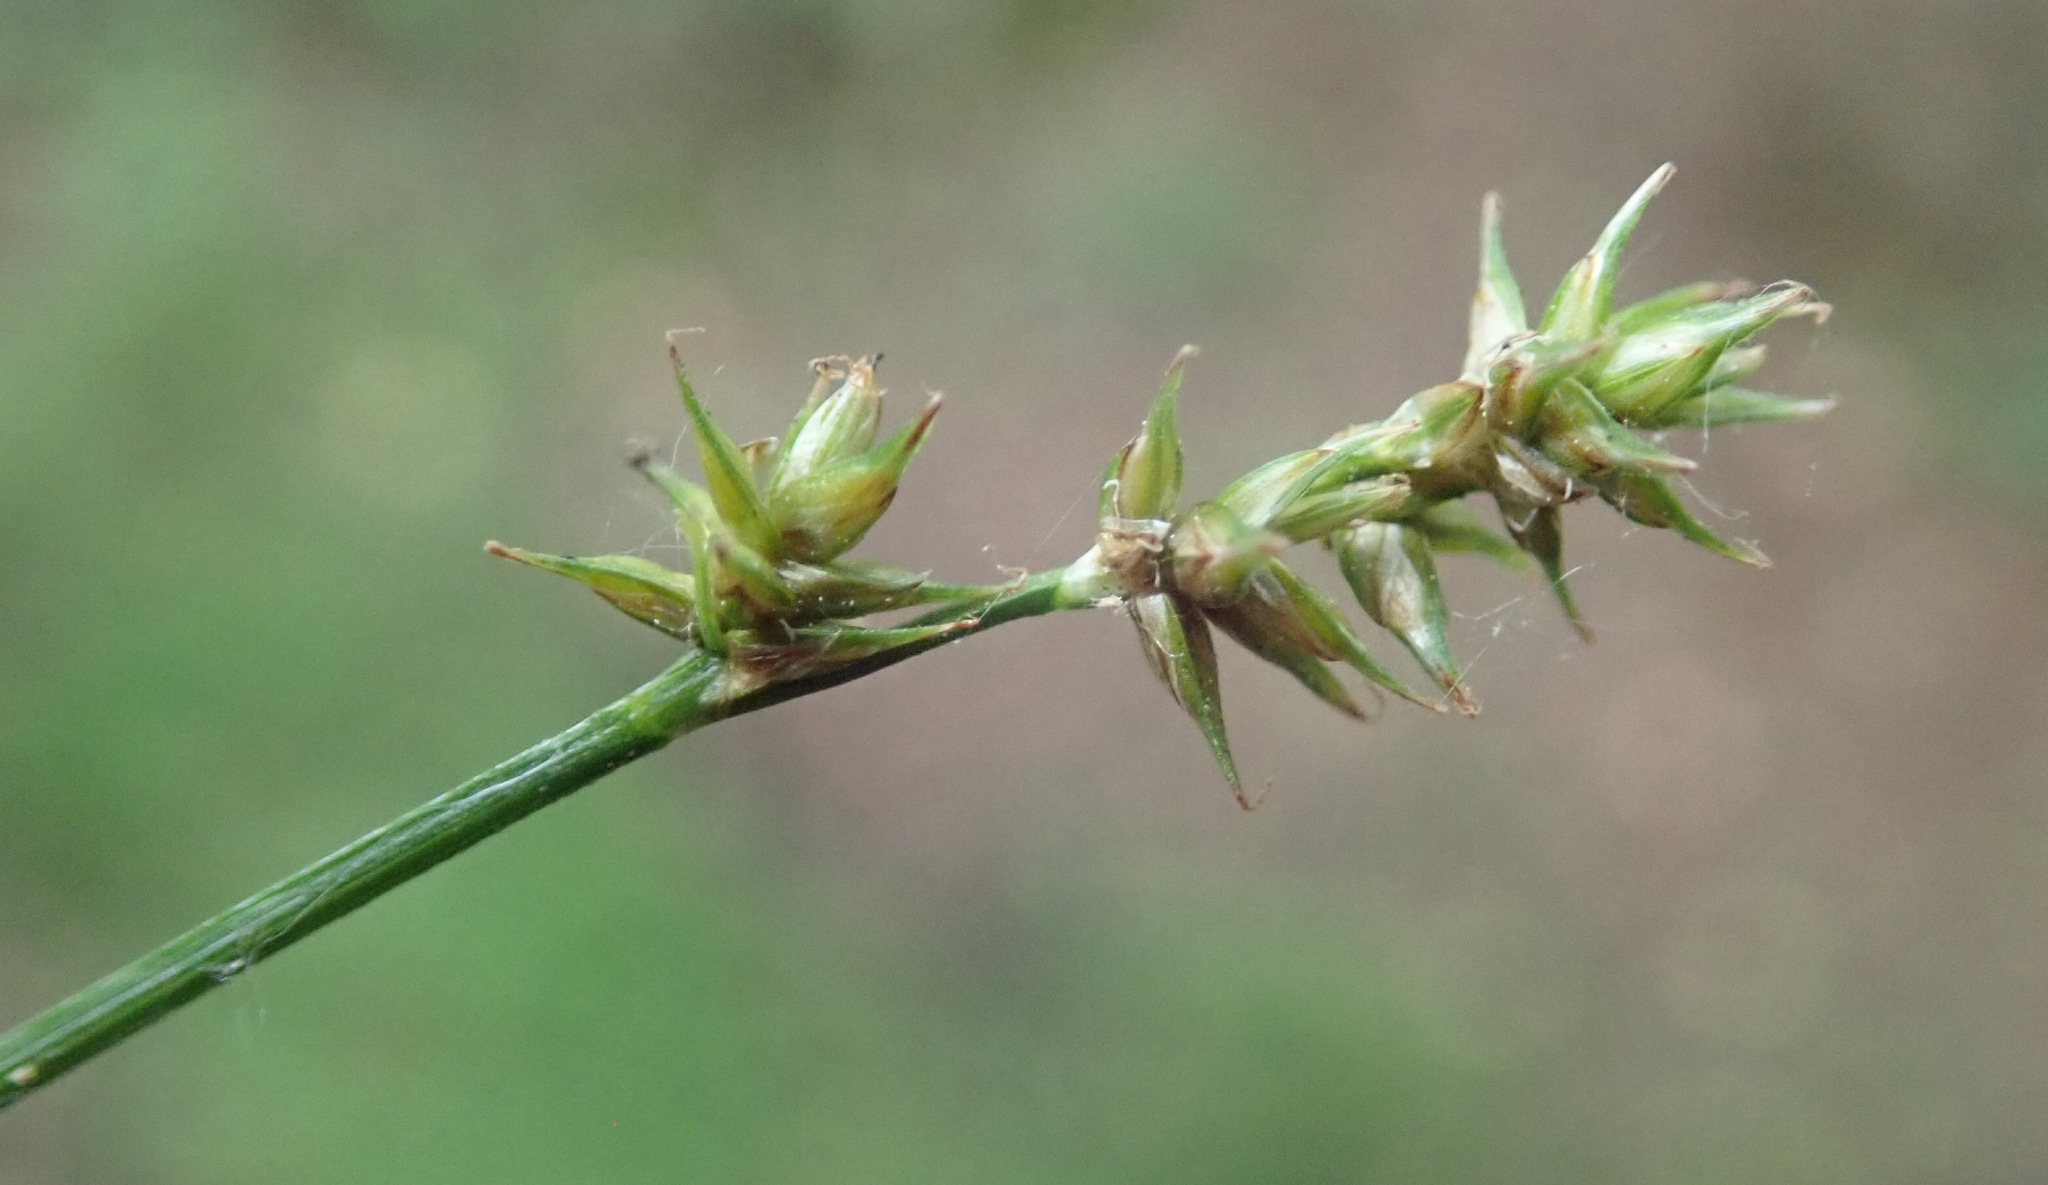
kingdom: Plantae
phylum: Tracheophyta
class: Liliopsida
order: Poales
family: Cyperaceae
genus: Carex
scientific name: Carex echinata
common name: Star sedge
